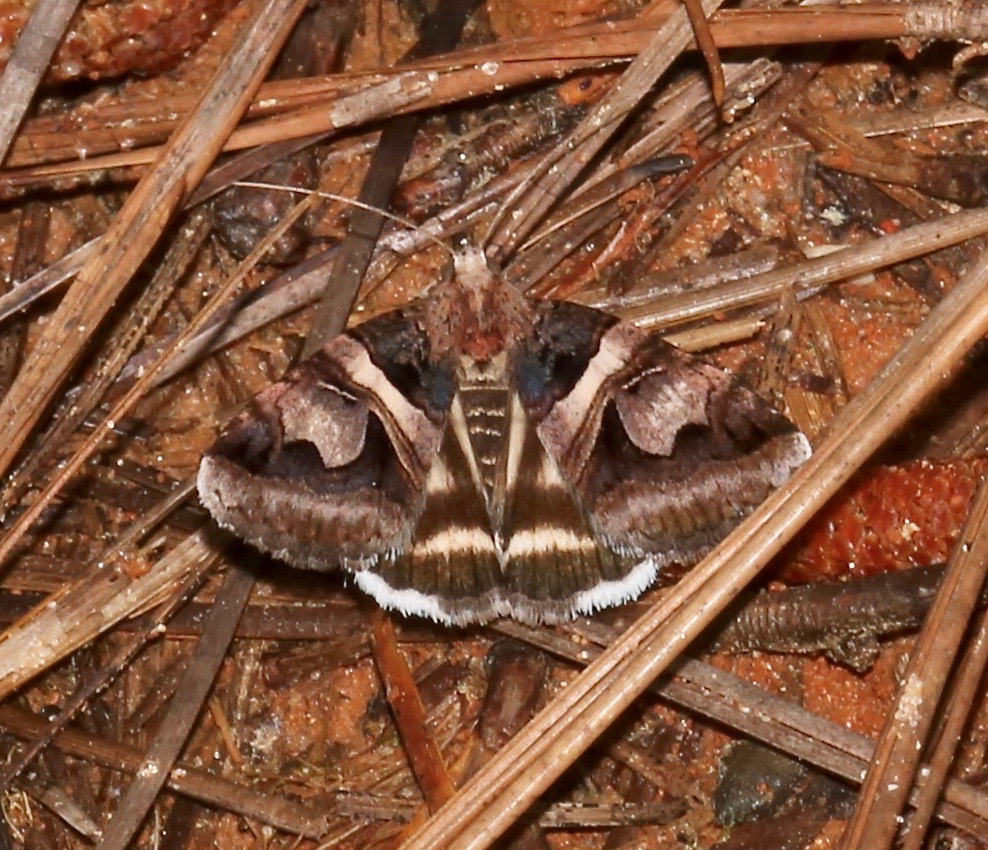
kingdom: Animalia
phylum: Arthropoda
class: Insecta
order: Lepidoptera
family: Erebidae
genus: Drasteria
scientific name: Drasteria grandirena
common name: Figure-seven moth
